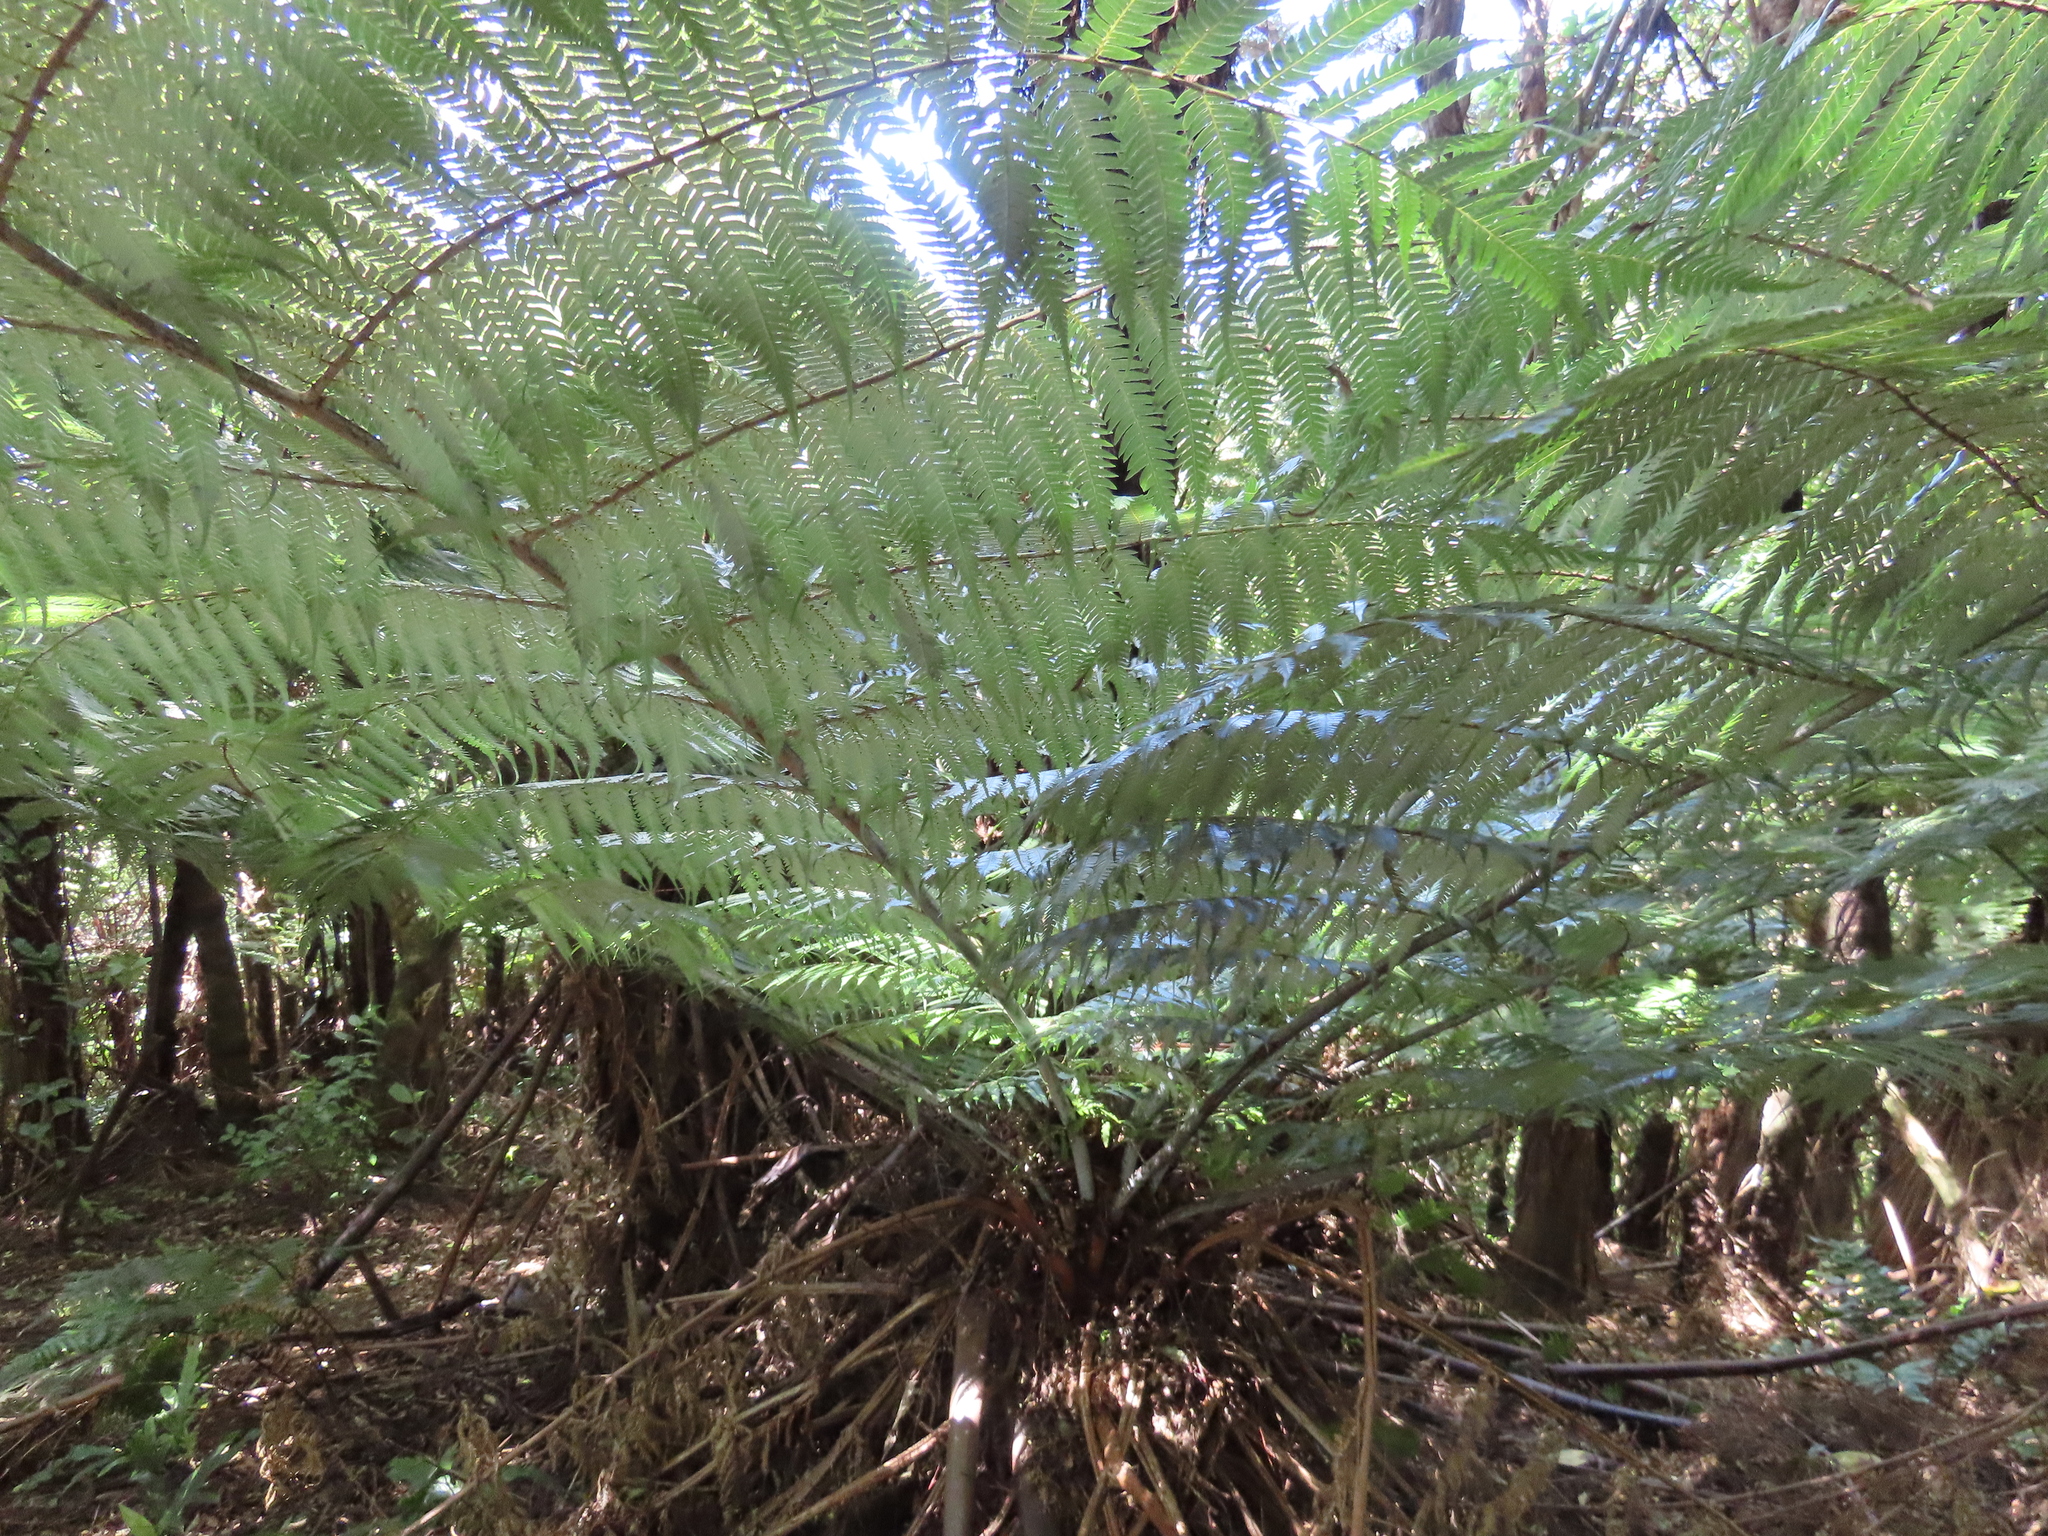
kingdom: Plantae
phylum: Tracheophyta
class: Polypodiopsida
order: Cyatheales
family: Cyatheaceae
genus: Alsophila
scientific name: Alsophila dealbata
